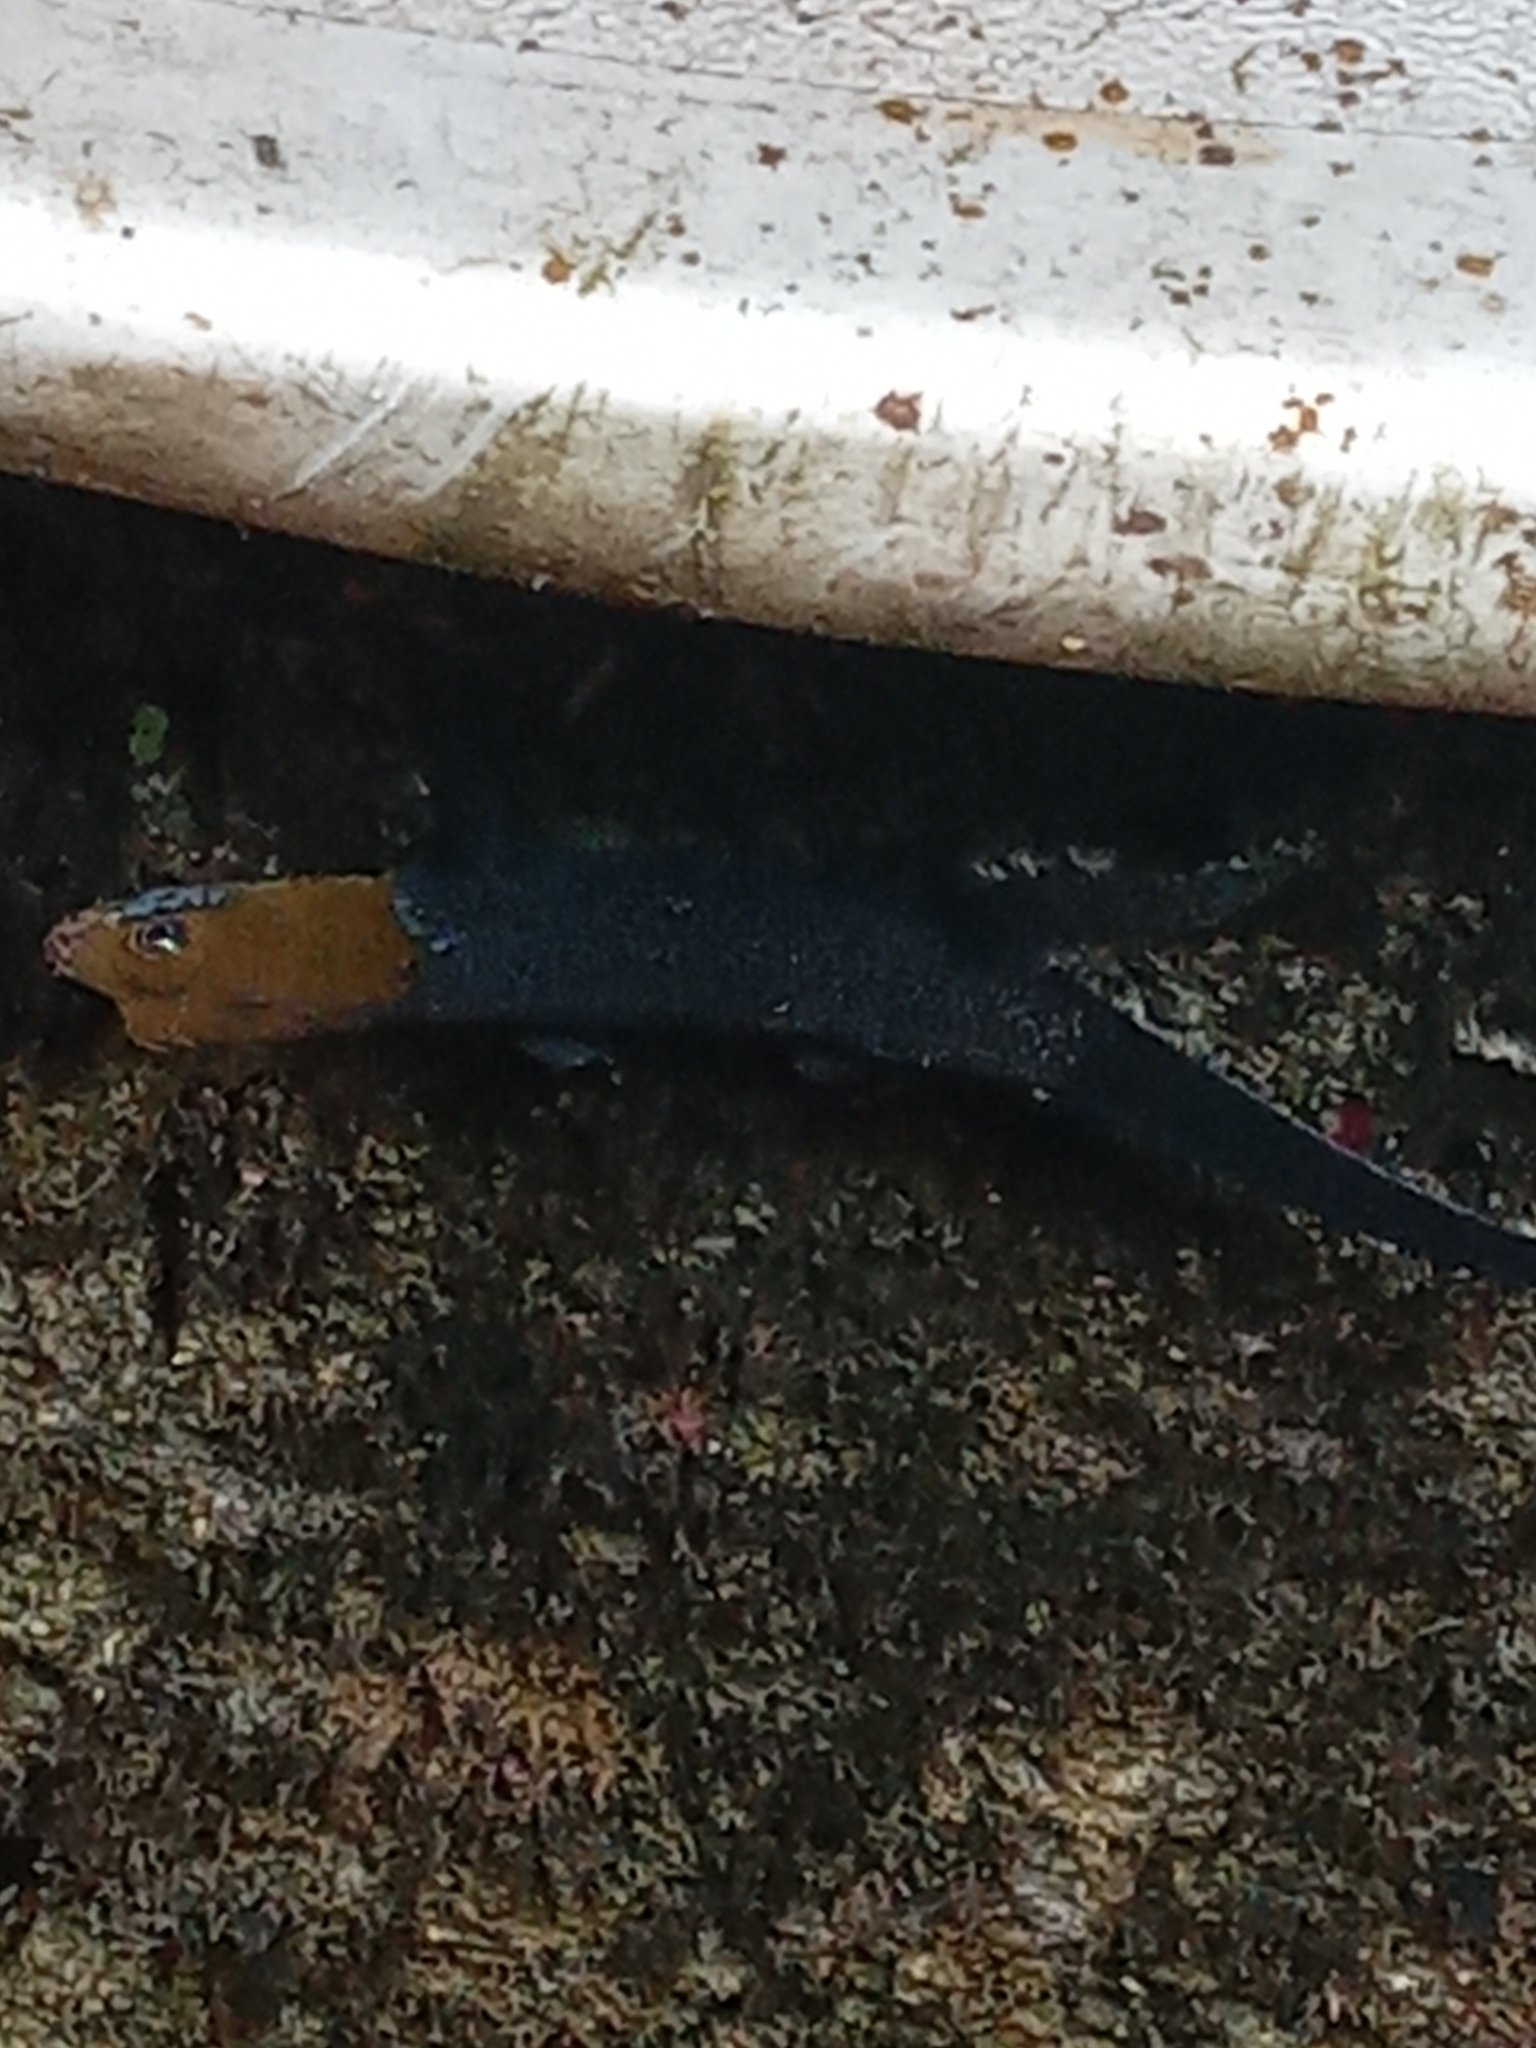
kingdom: Animalia
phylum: Chordata
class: Squamata
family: Sphaerodactylidae
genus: Gonatodes
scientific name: Gonatodes albogularis
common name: Yellow-headed gecko
